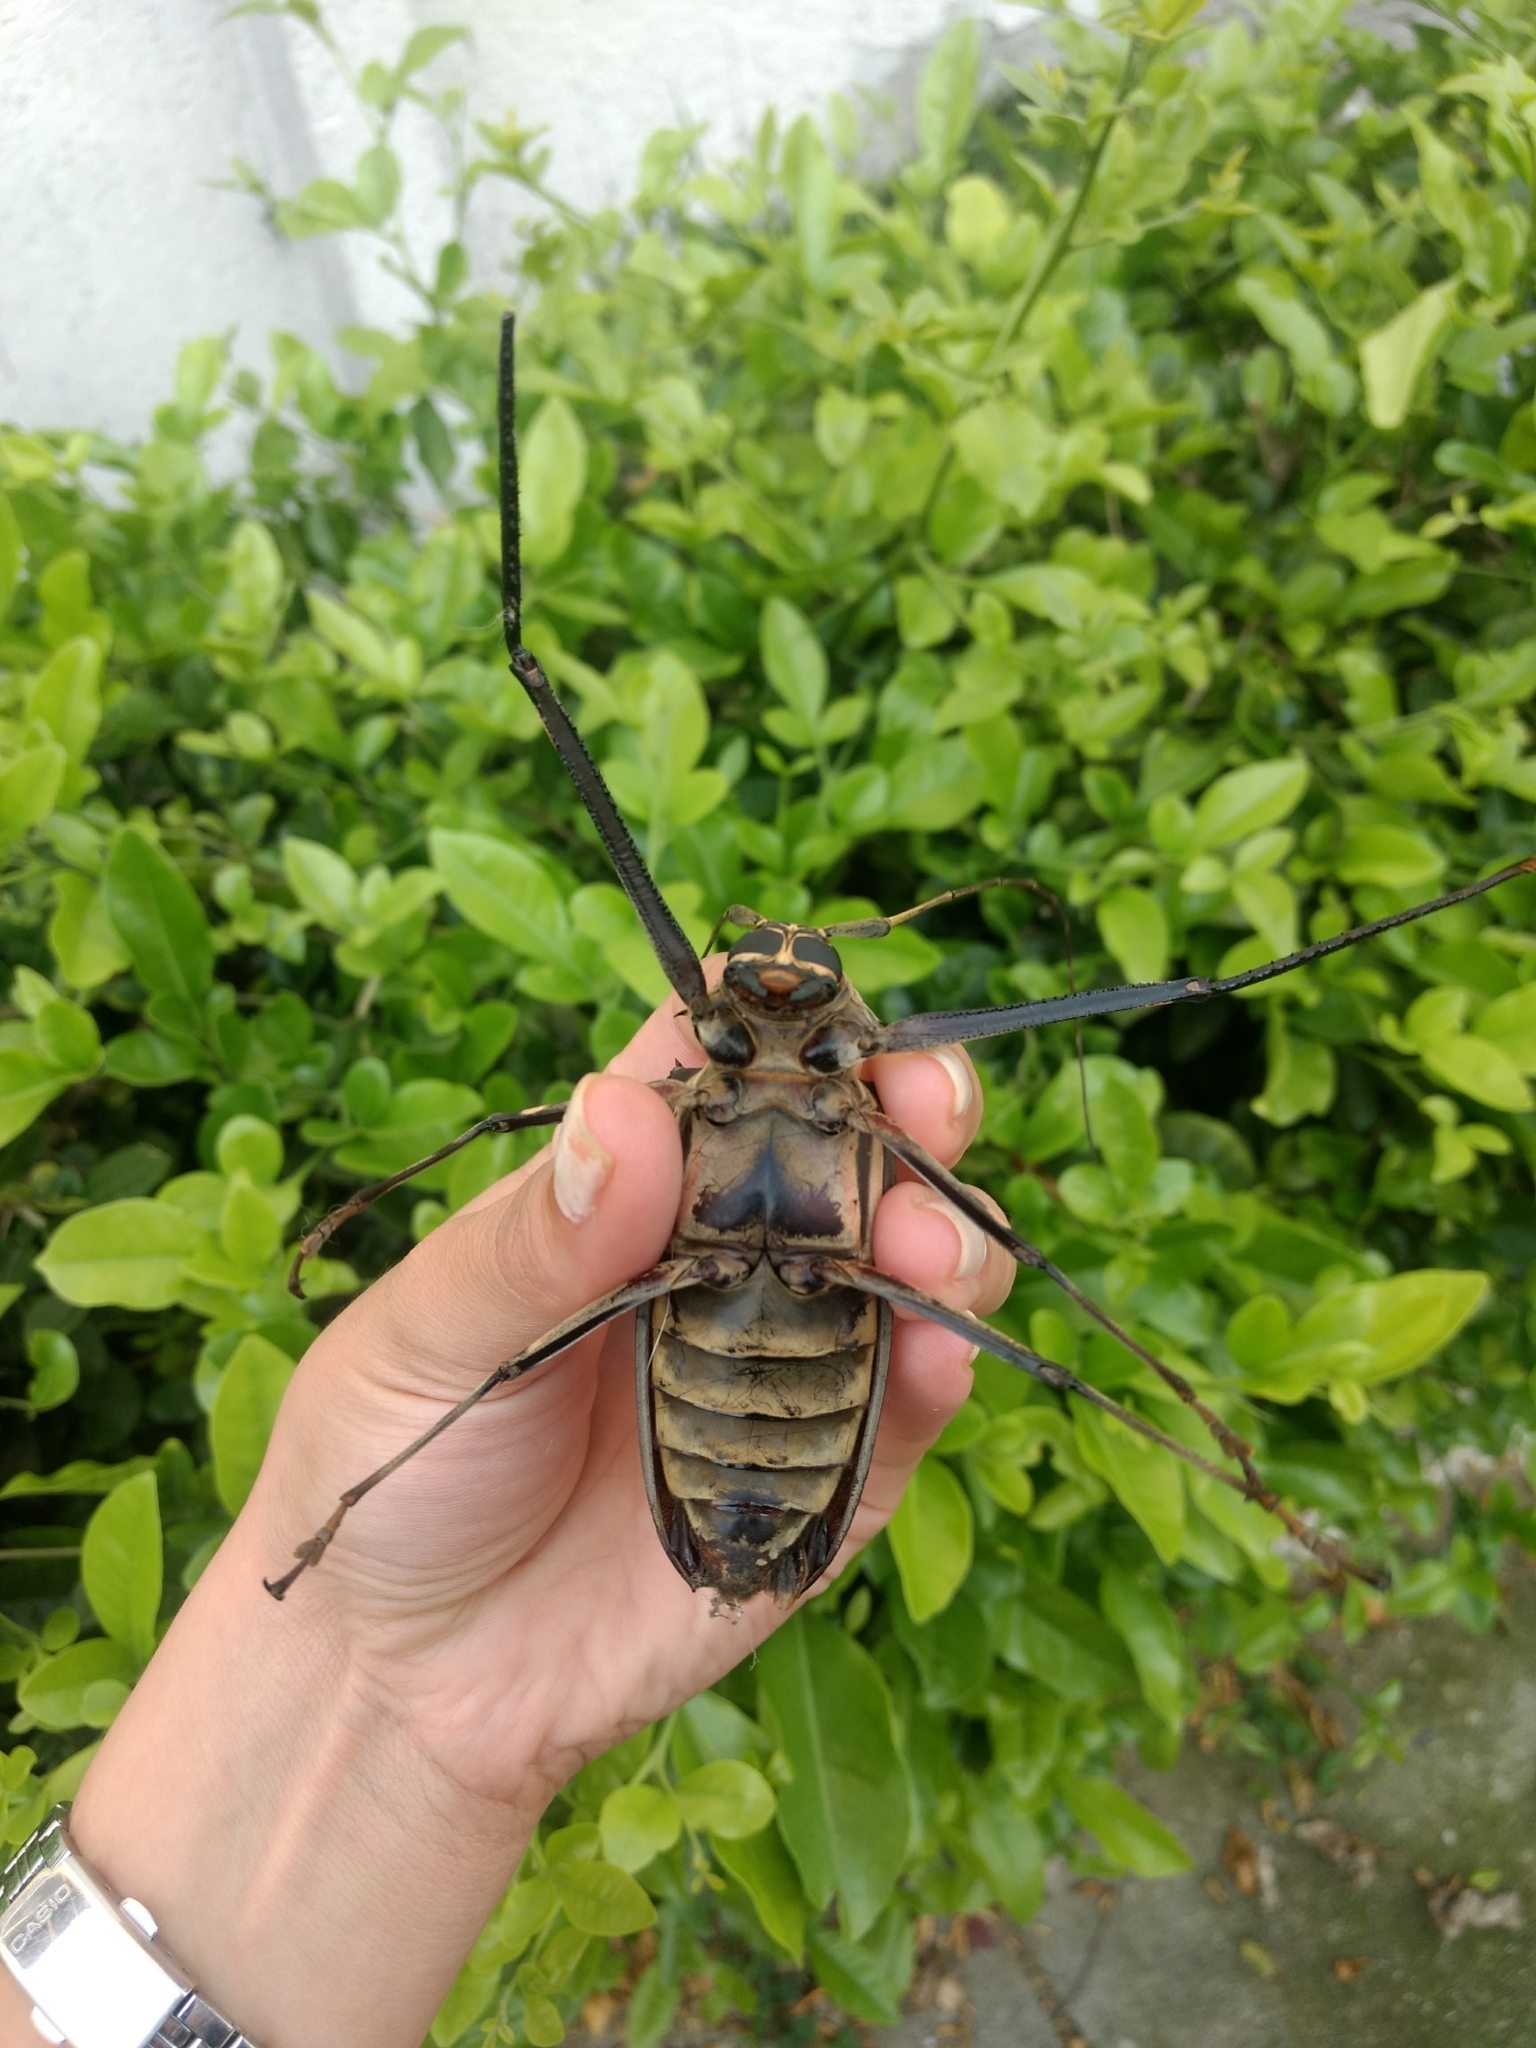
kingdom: Animalia
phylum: Arthropoda
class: Insecta
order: Coleoptera
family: Cerambycidae
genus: Acrocinus
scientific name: Acrocinus longimanus
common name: Arlequin
